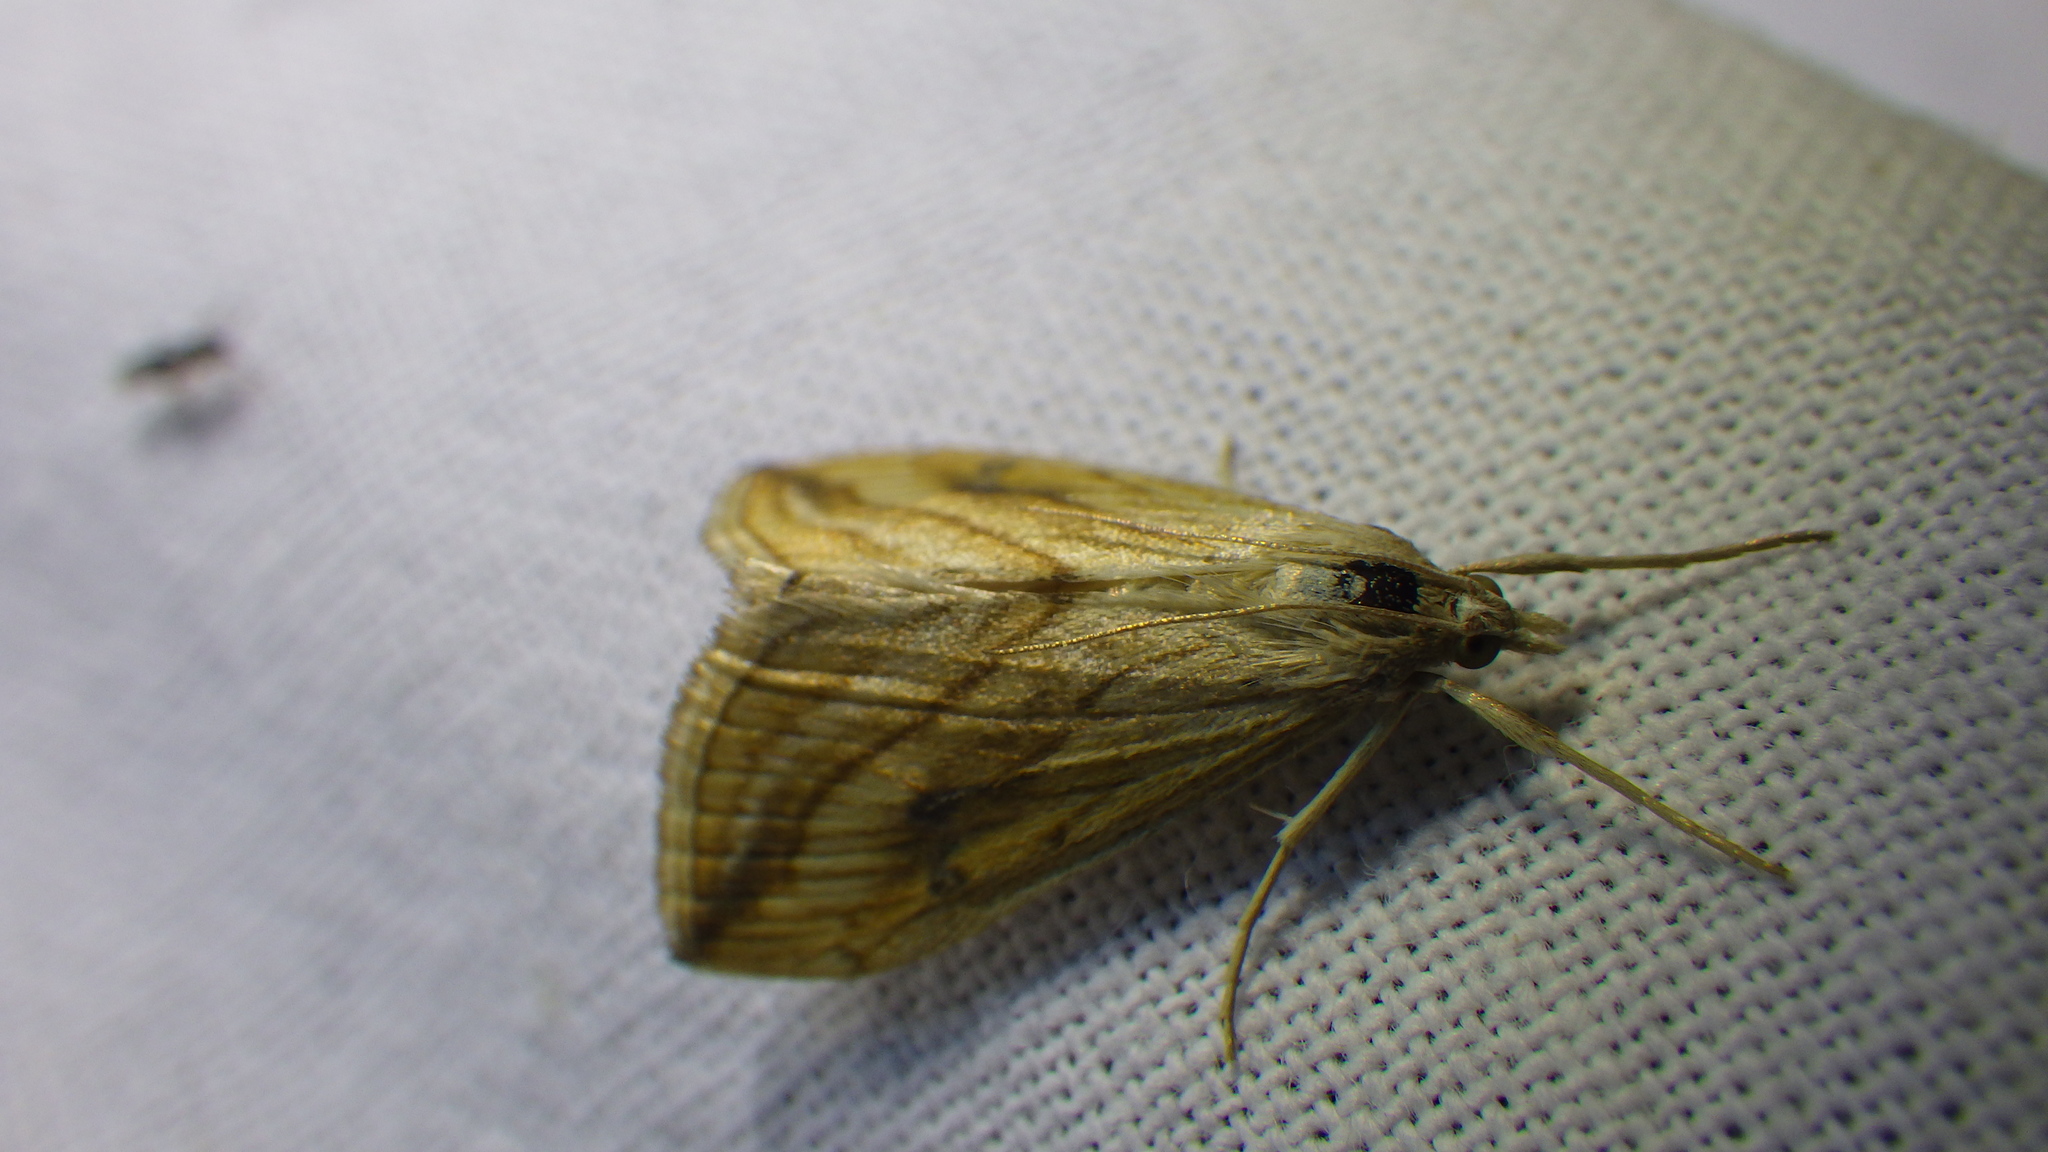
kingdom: Animalia
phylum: Arthropoda
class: Insecta
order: Lepidoptera
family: Crambidae
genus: Evergestis
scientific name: Evergestis forficalis
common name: Garden pebble
